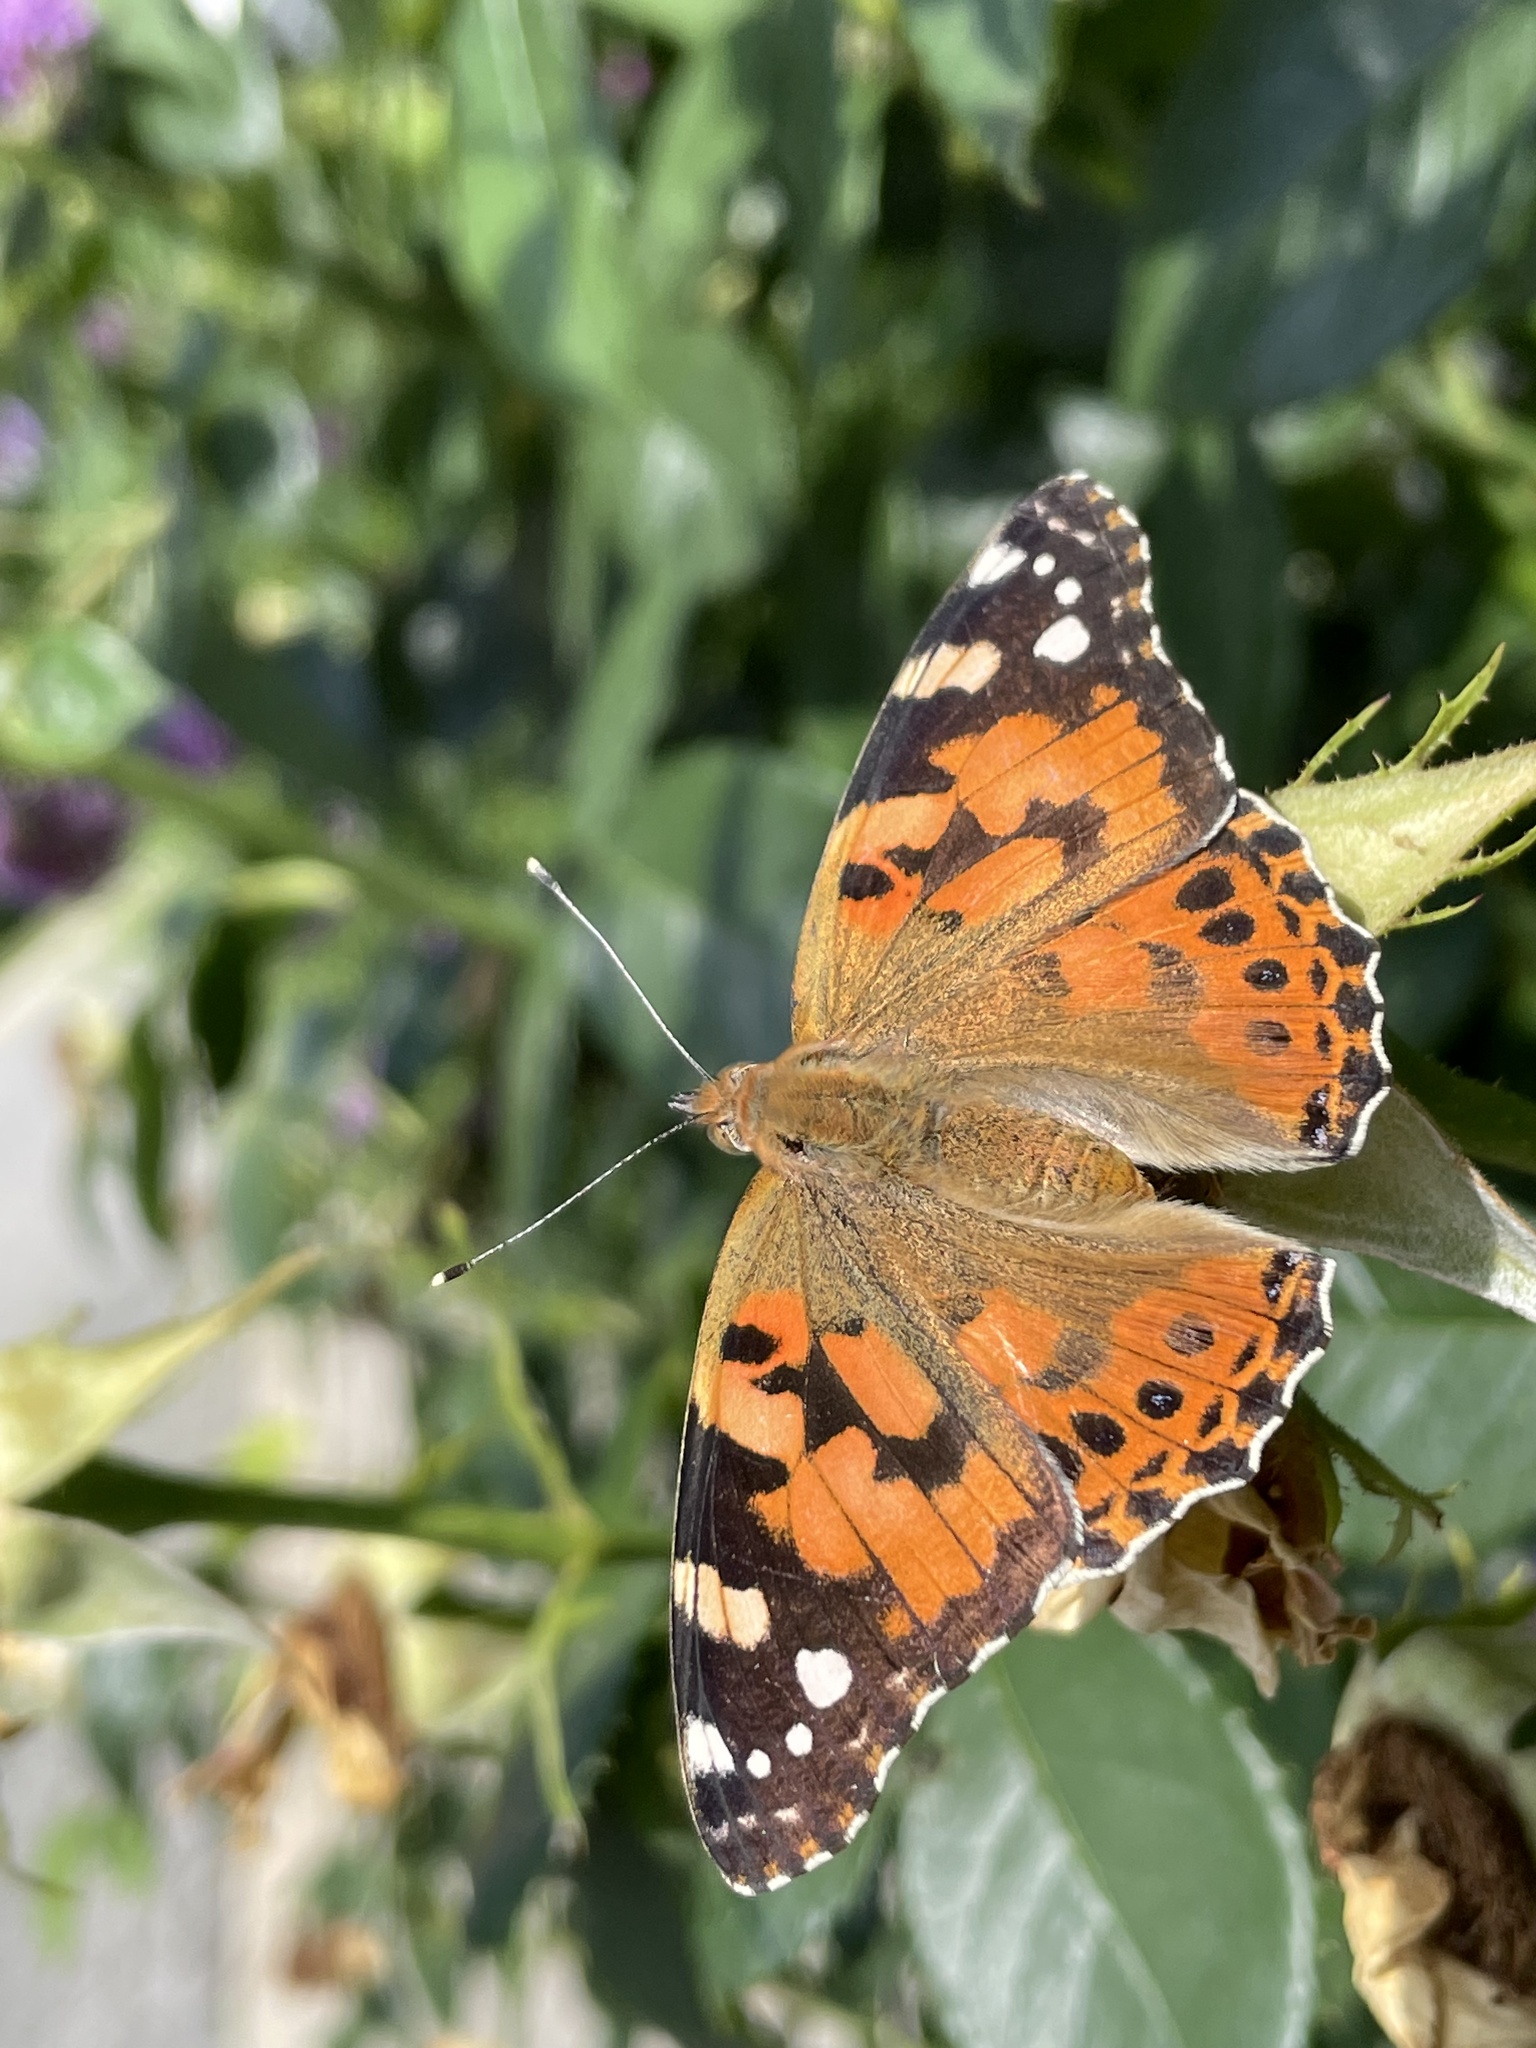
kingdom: Animalia
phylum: Arthropoda
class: Insecta
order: Lepidoptera
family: Nymphalidae
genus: Vanessa
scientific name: Vanessa cardui
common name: Painted lady
